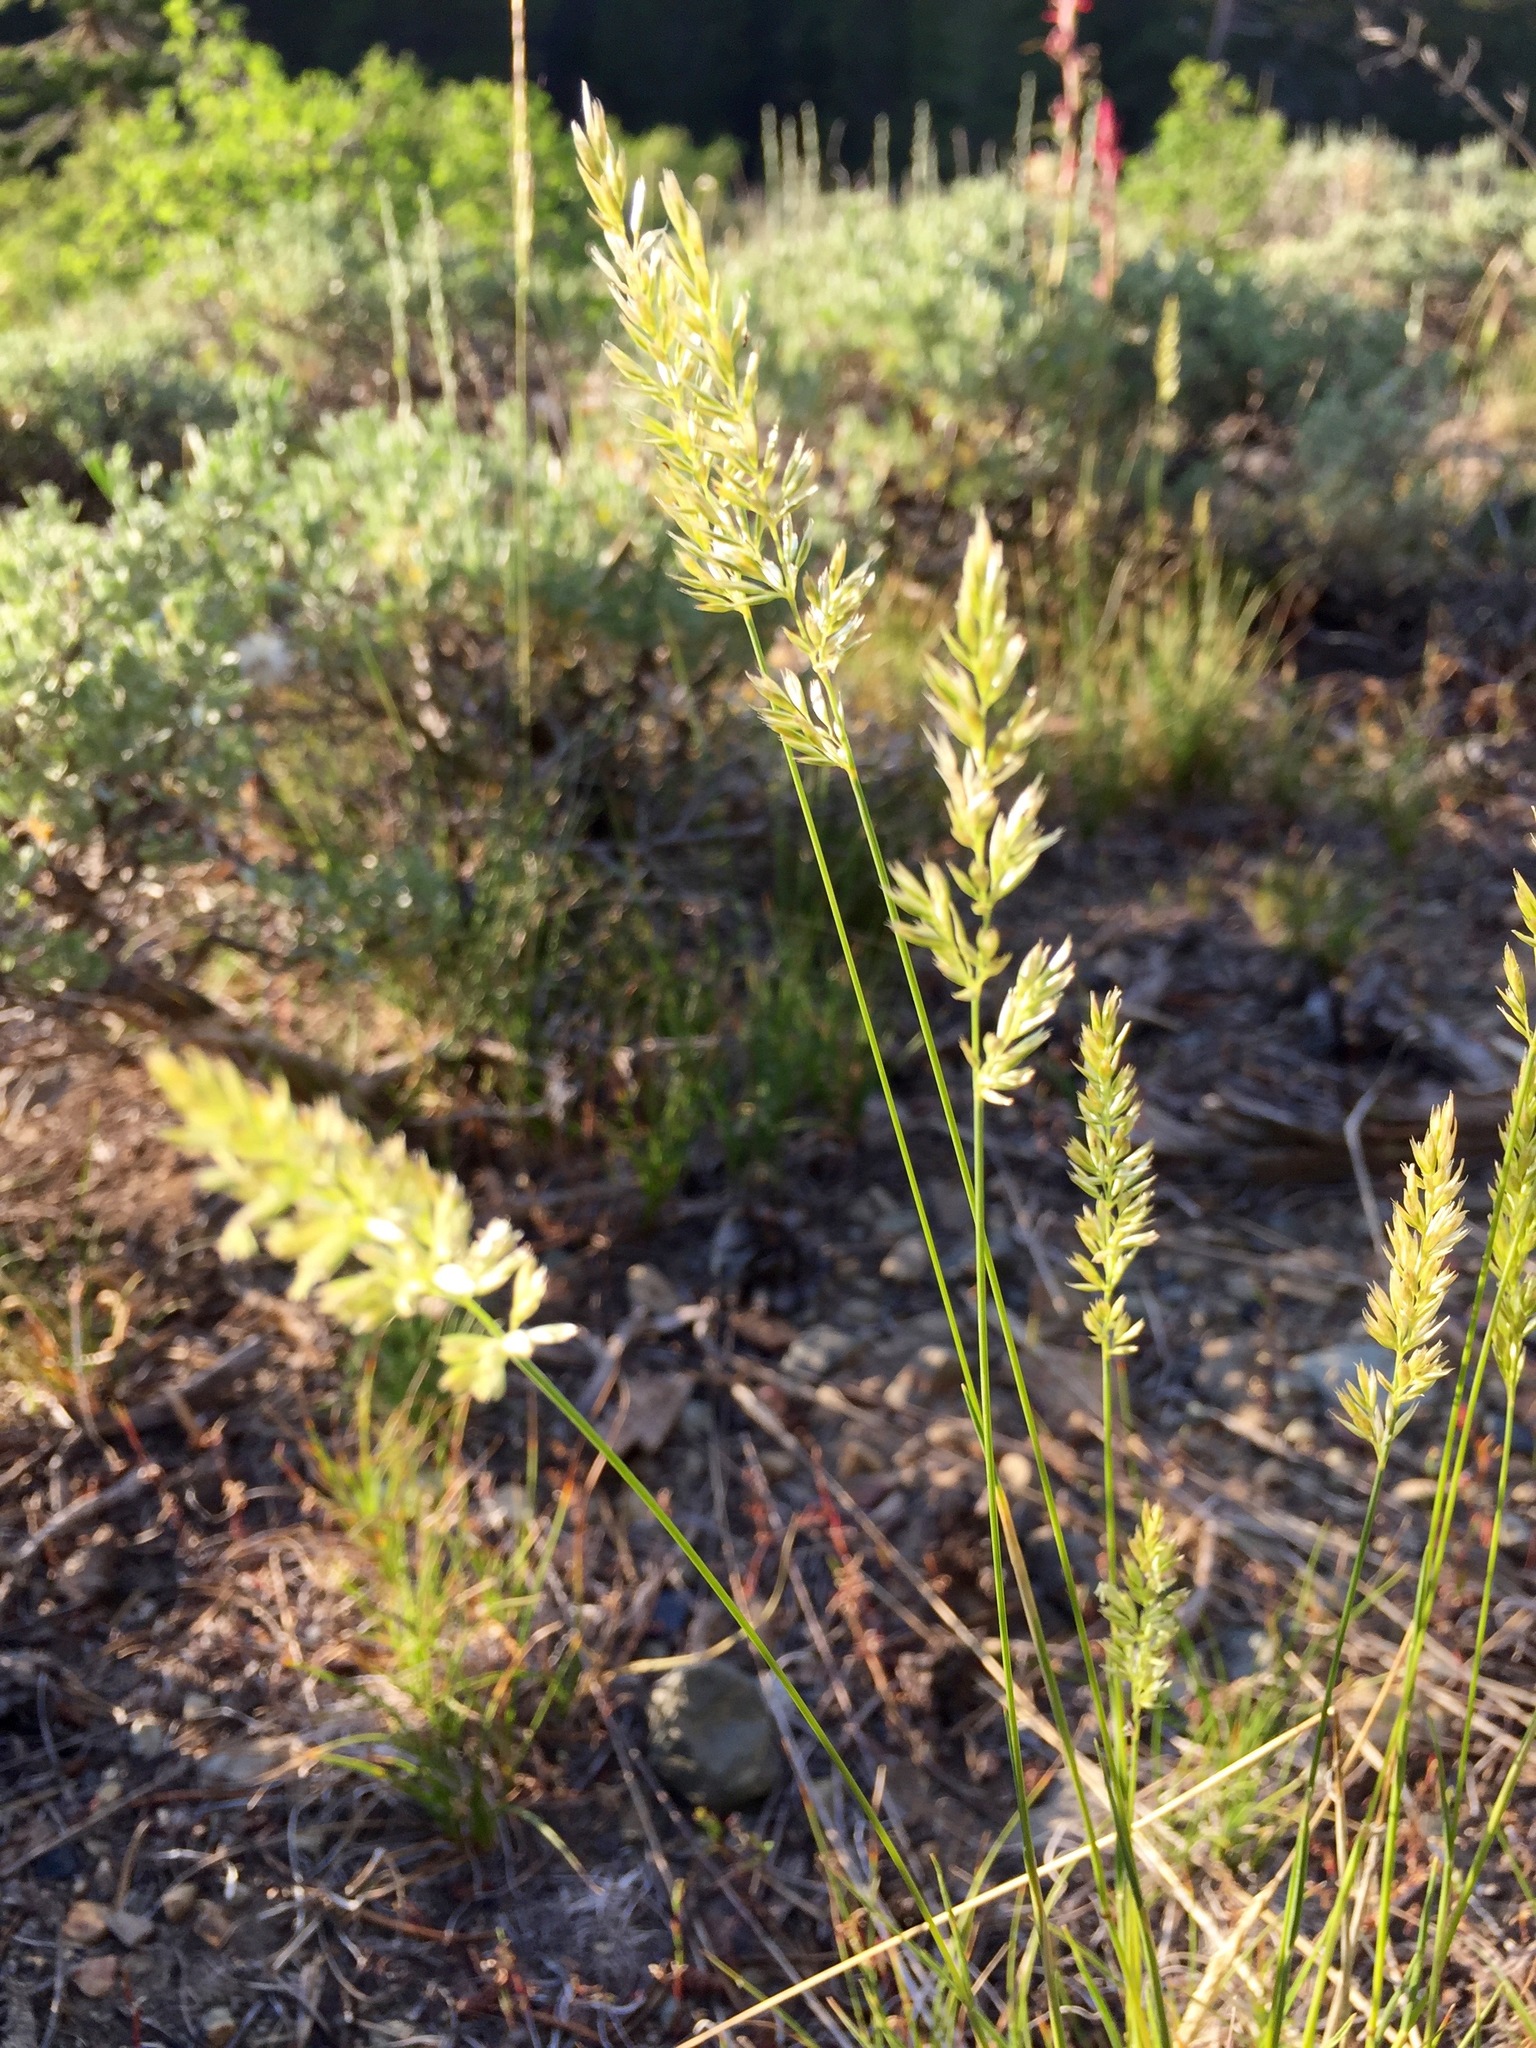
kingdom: Plantae
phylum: Tracheophyta
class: Liliopsida
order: Poales
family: Poaceae
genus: Koeleria
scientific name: Koeleria macrantha
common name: Crested hair-grass
